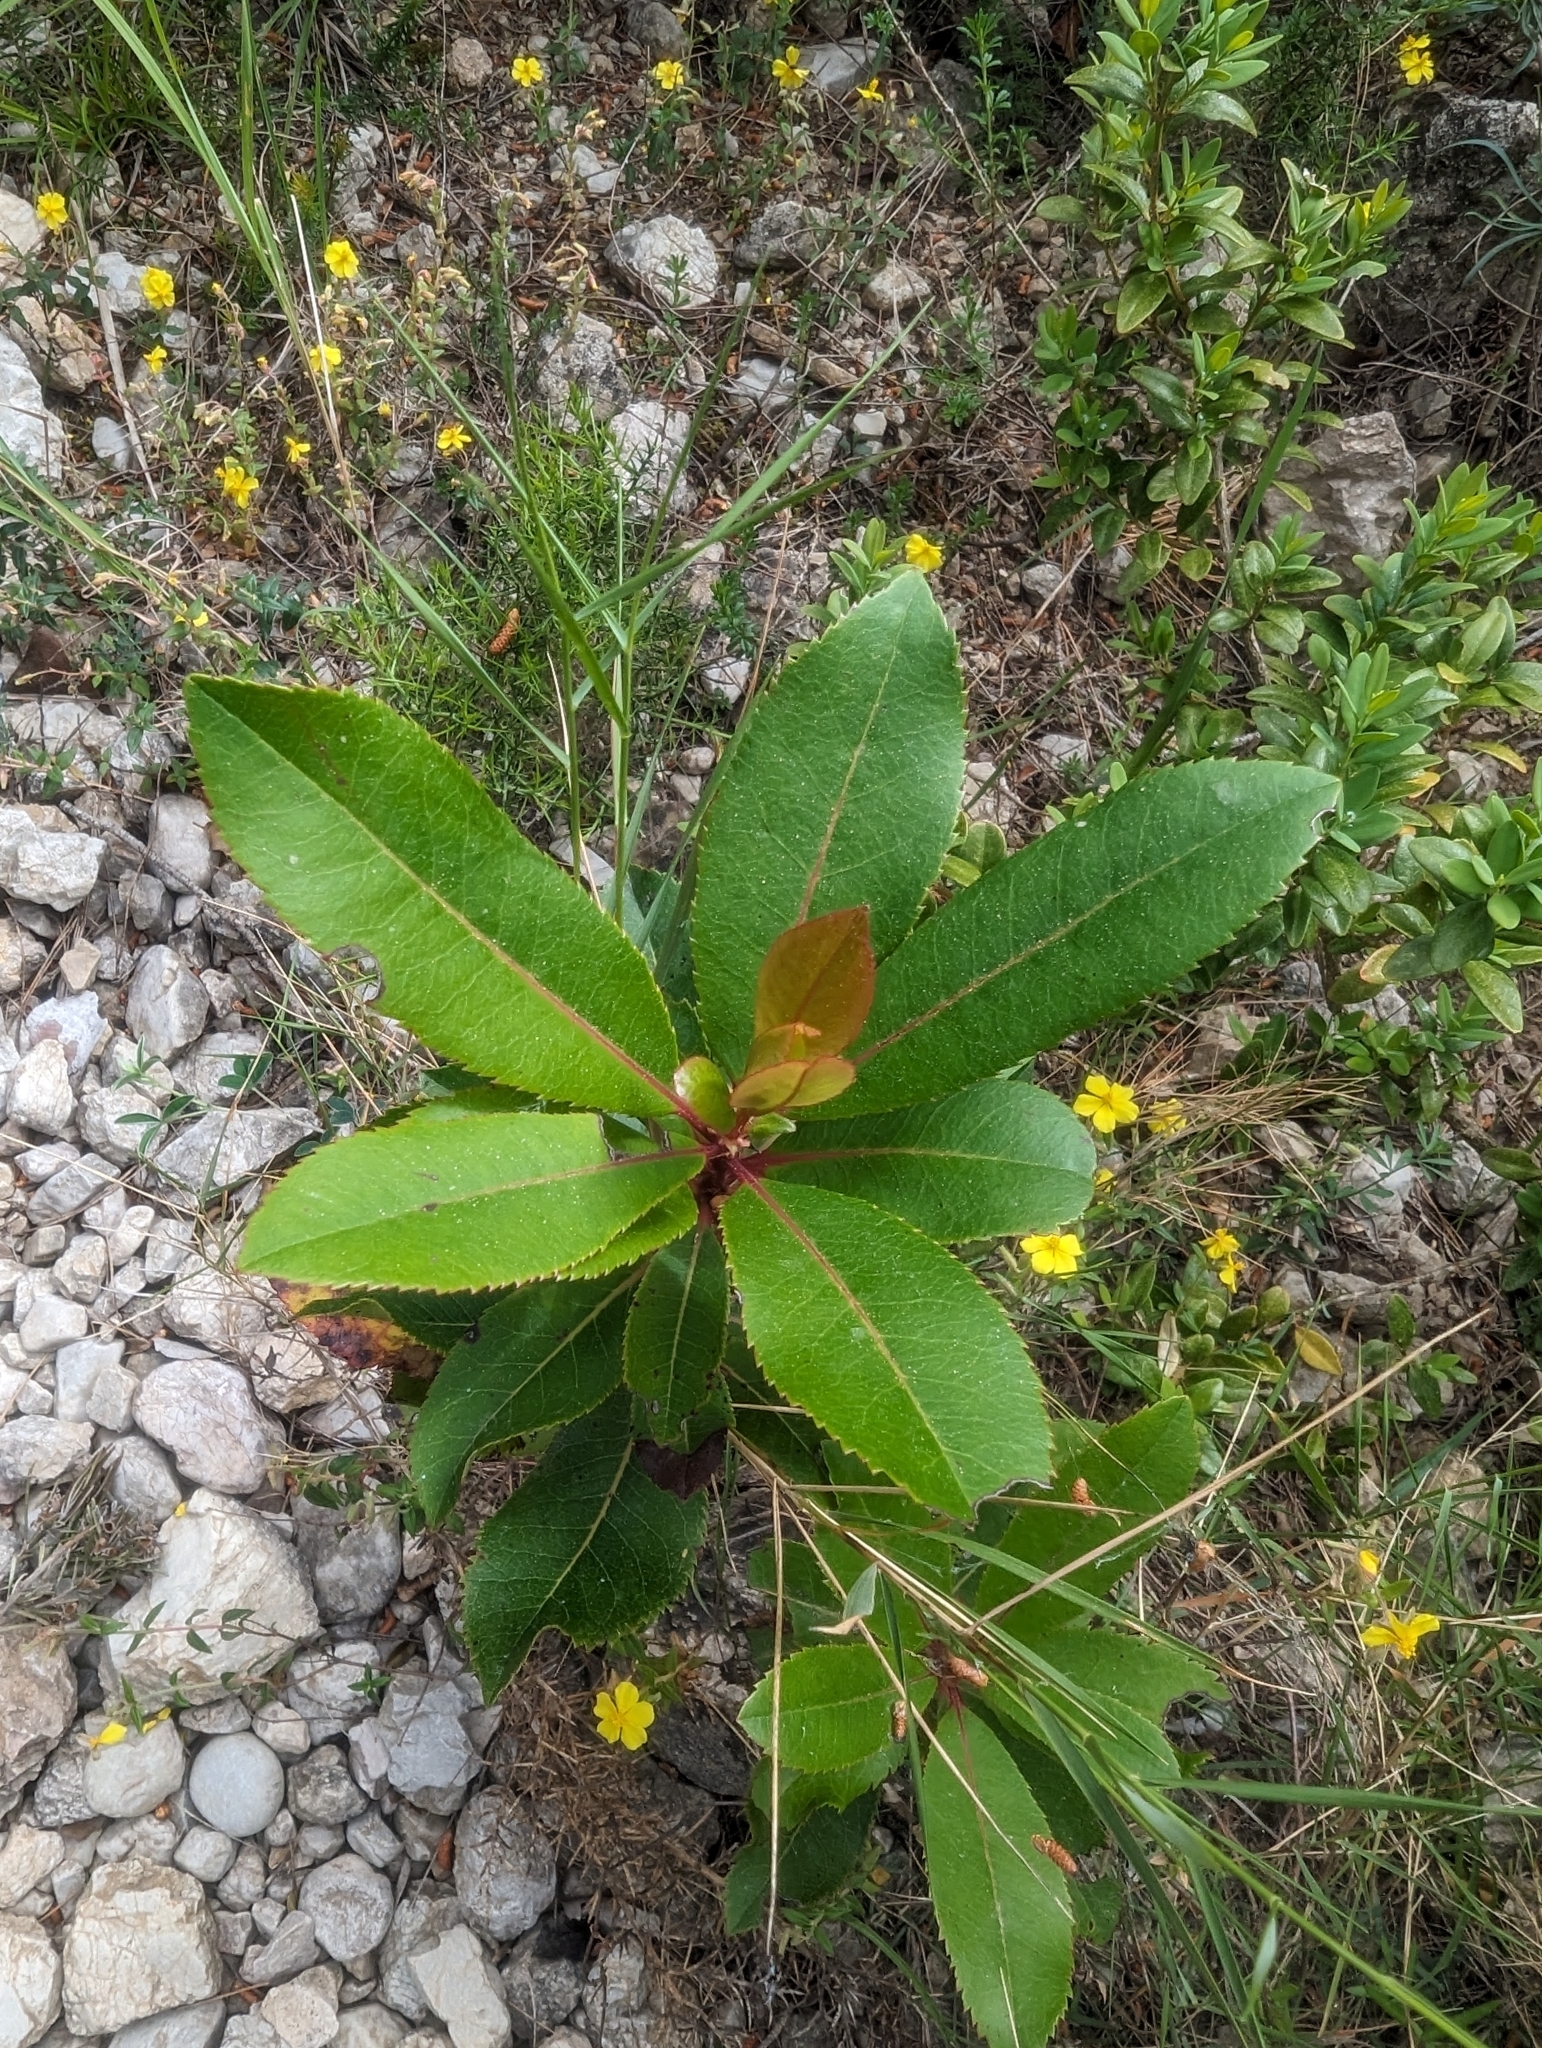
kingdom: Plantae
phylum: Tracheophyta
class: Magnoliopsida
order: Ericales
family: Ericaceae
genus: Arbutus
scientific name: Arbutus unedo
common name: Strawberry-tree
